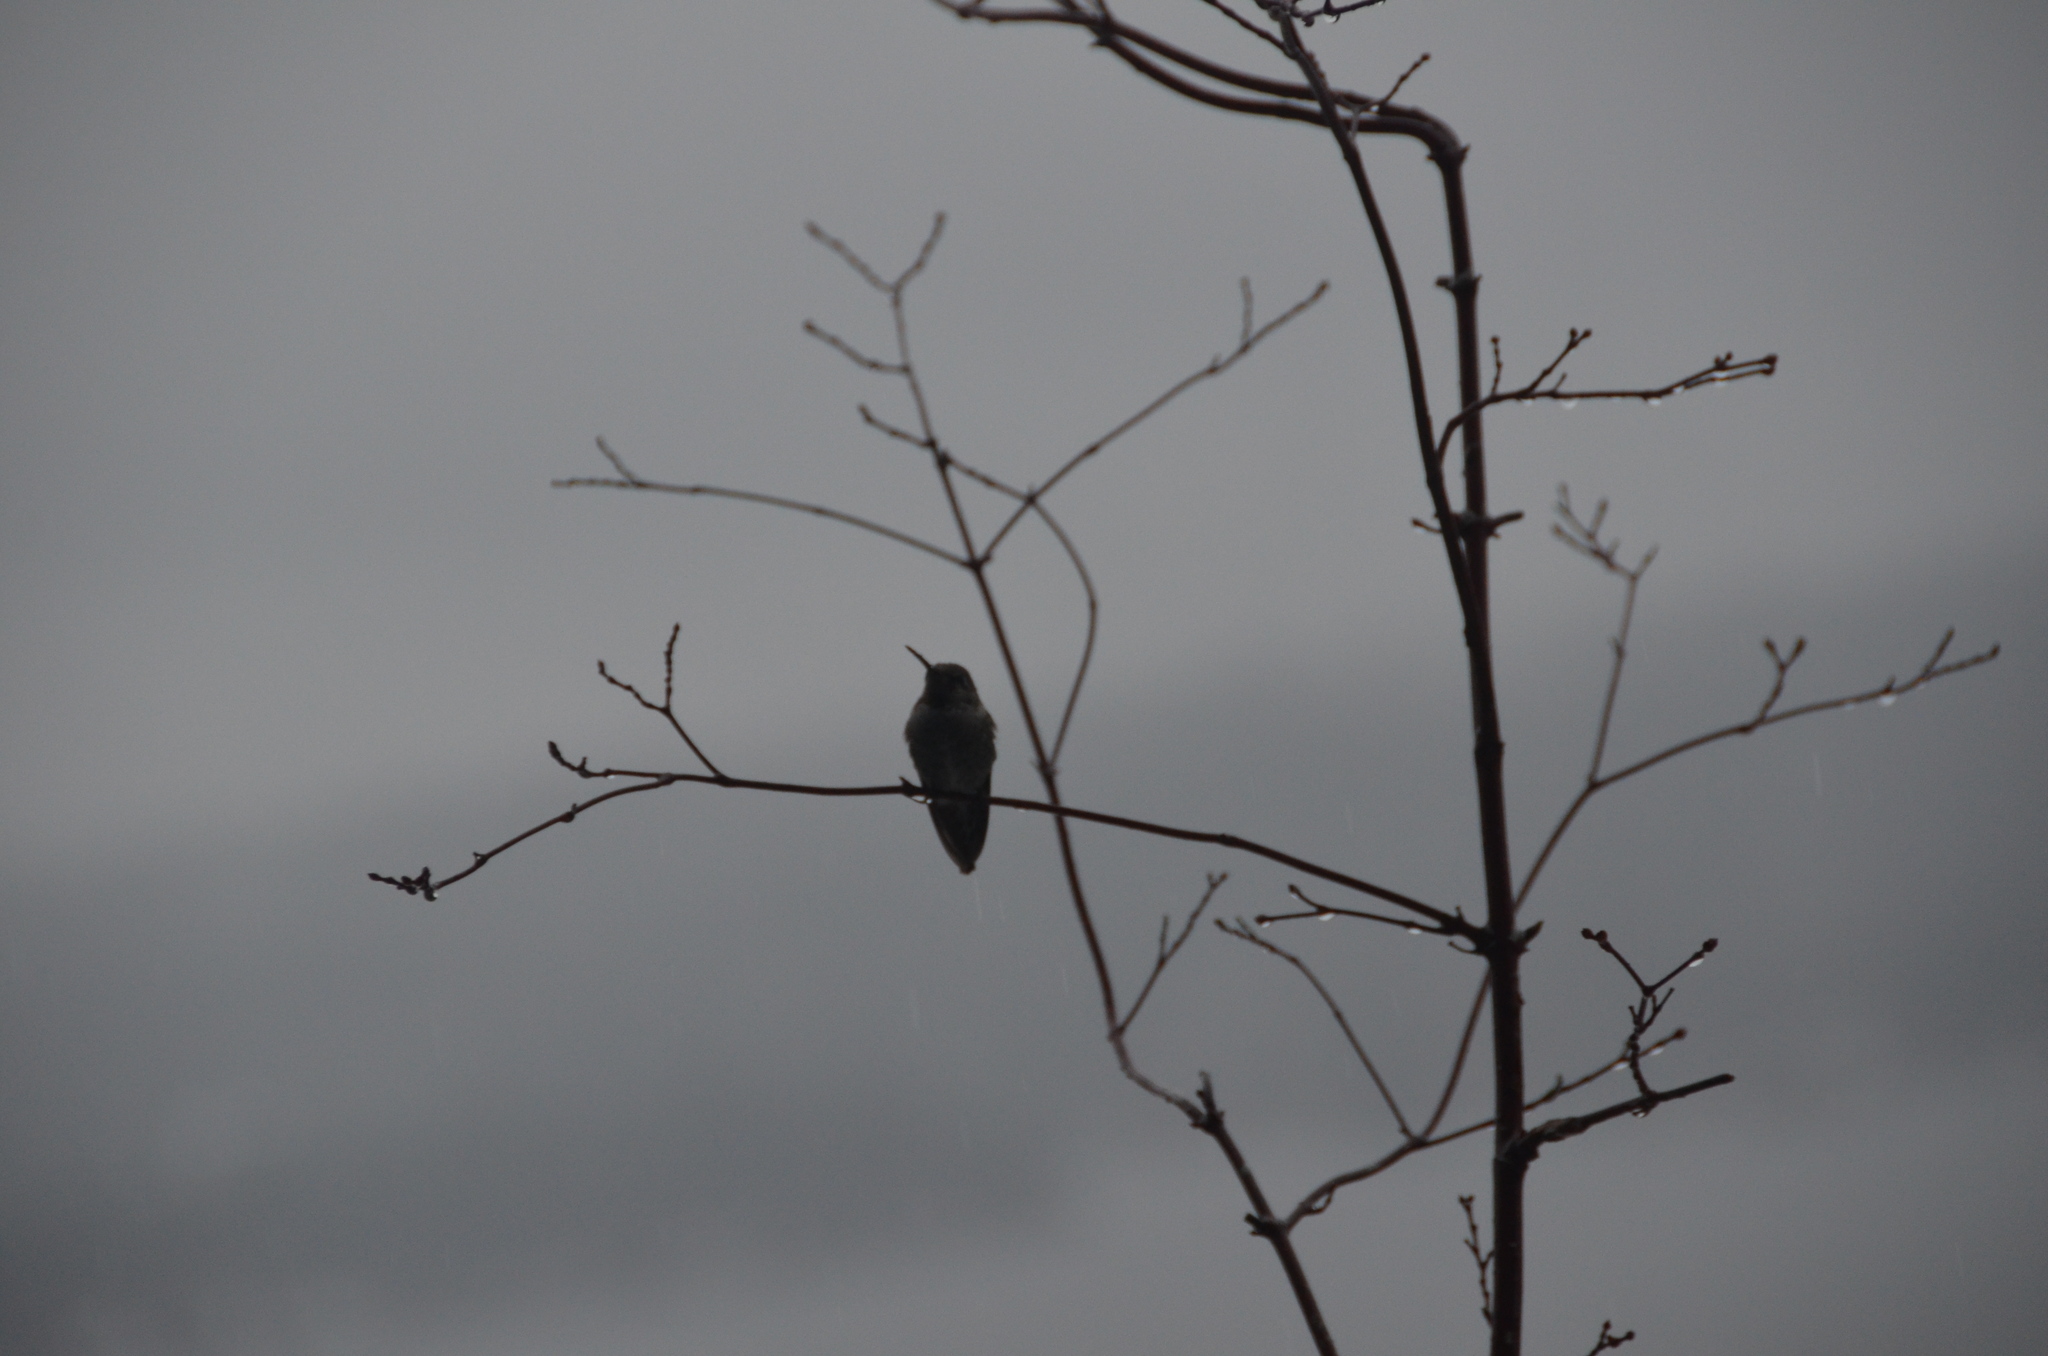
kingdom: Animalia
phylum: Chordata
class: Aves
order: Apodiformes
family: Trochilidae
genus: Calypte
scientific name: Calypte anna
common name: Anna's hummingbird
